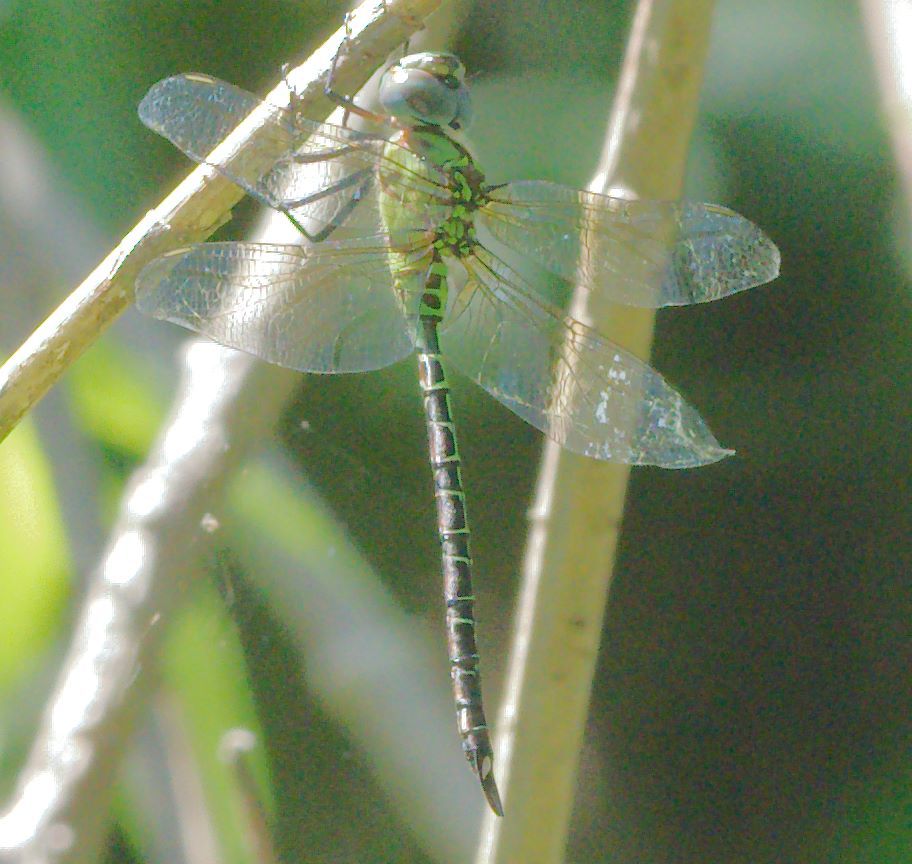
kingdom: Animalia
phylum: Arthropoda
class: Insecta
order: Odonata
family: Aeshnidae
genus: Coryphaeschna
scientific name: Coryphaeschna adnexa
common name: Blue-faced darner
